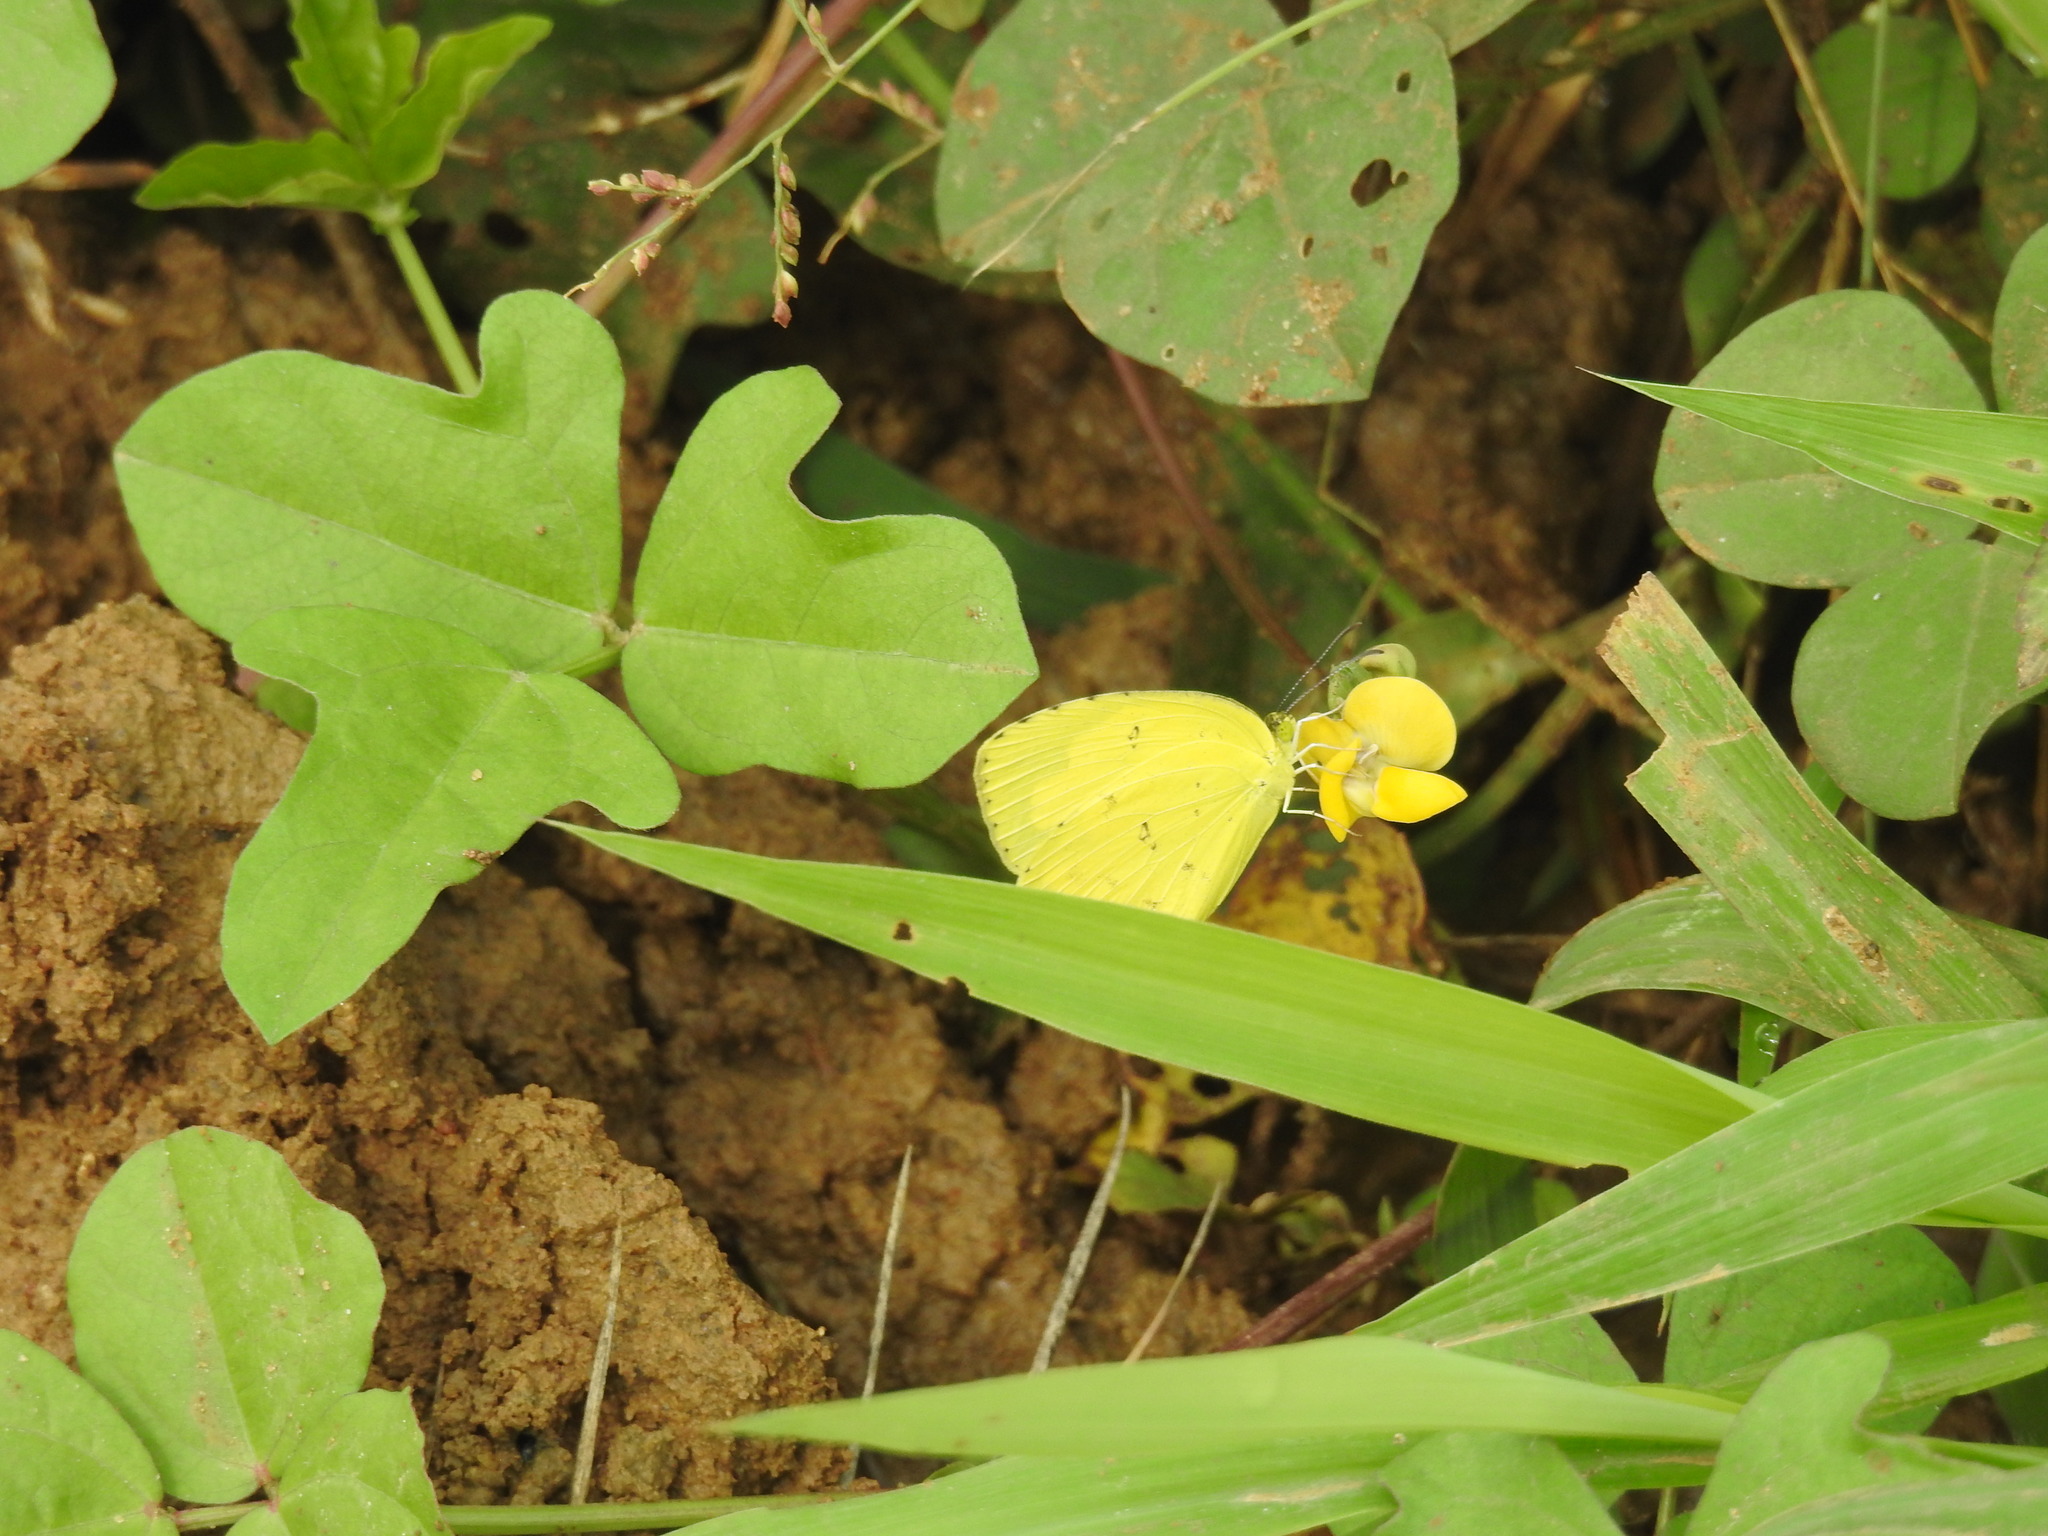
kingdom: Animalia
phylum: Arthropoda
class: Insecta
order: Lepidoptera
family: Pieridae
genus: Eurema
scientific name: Eurema hecabe
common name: Pale grass yellow
